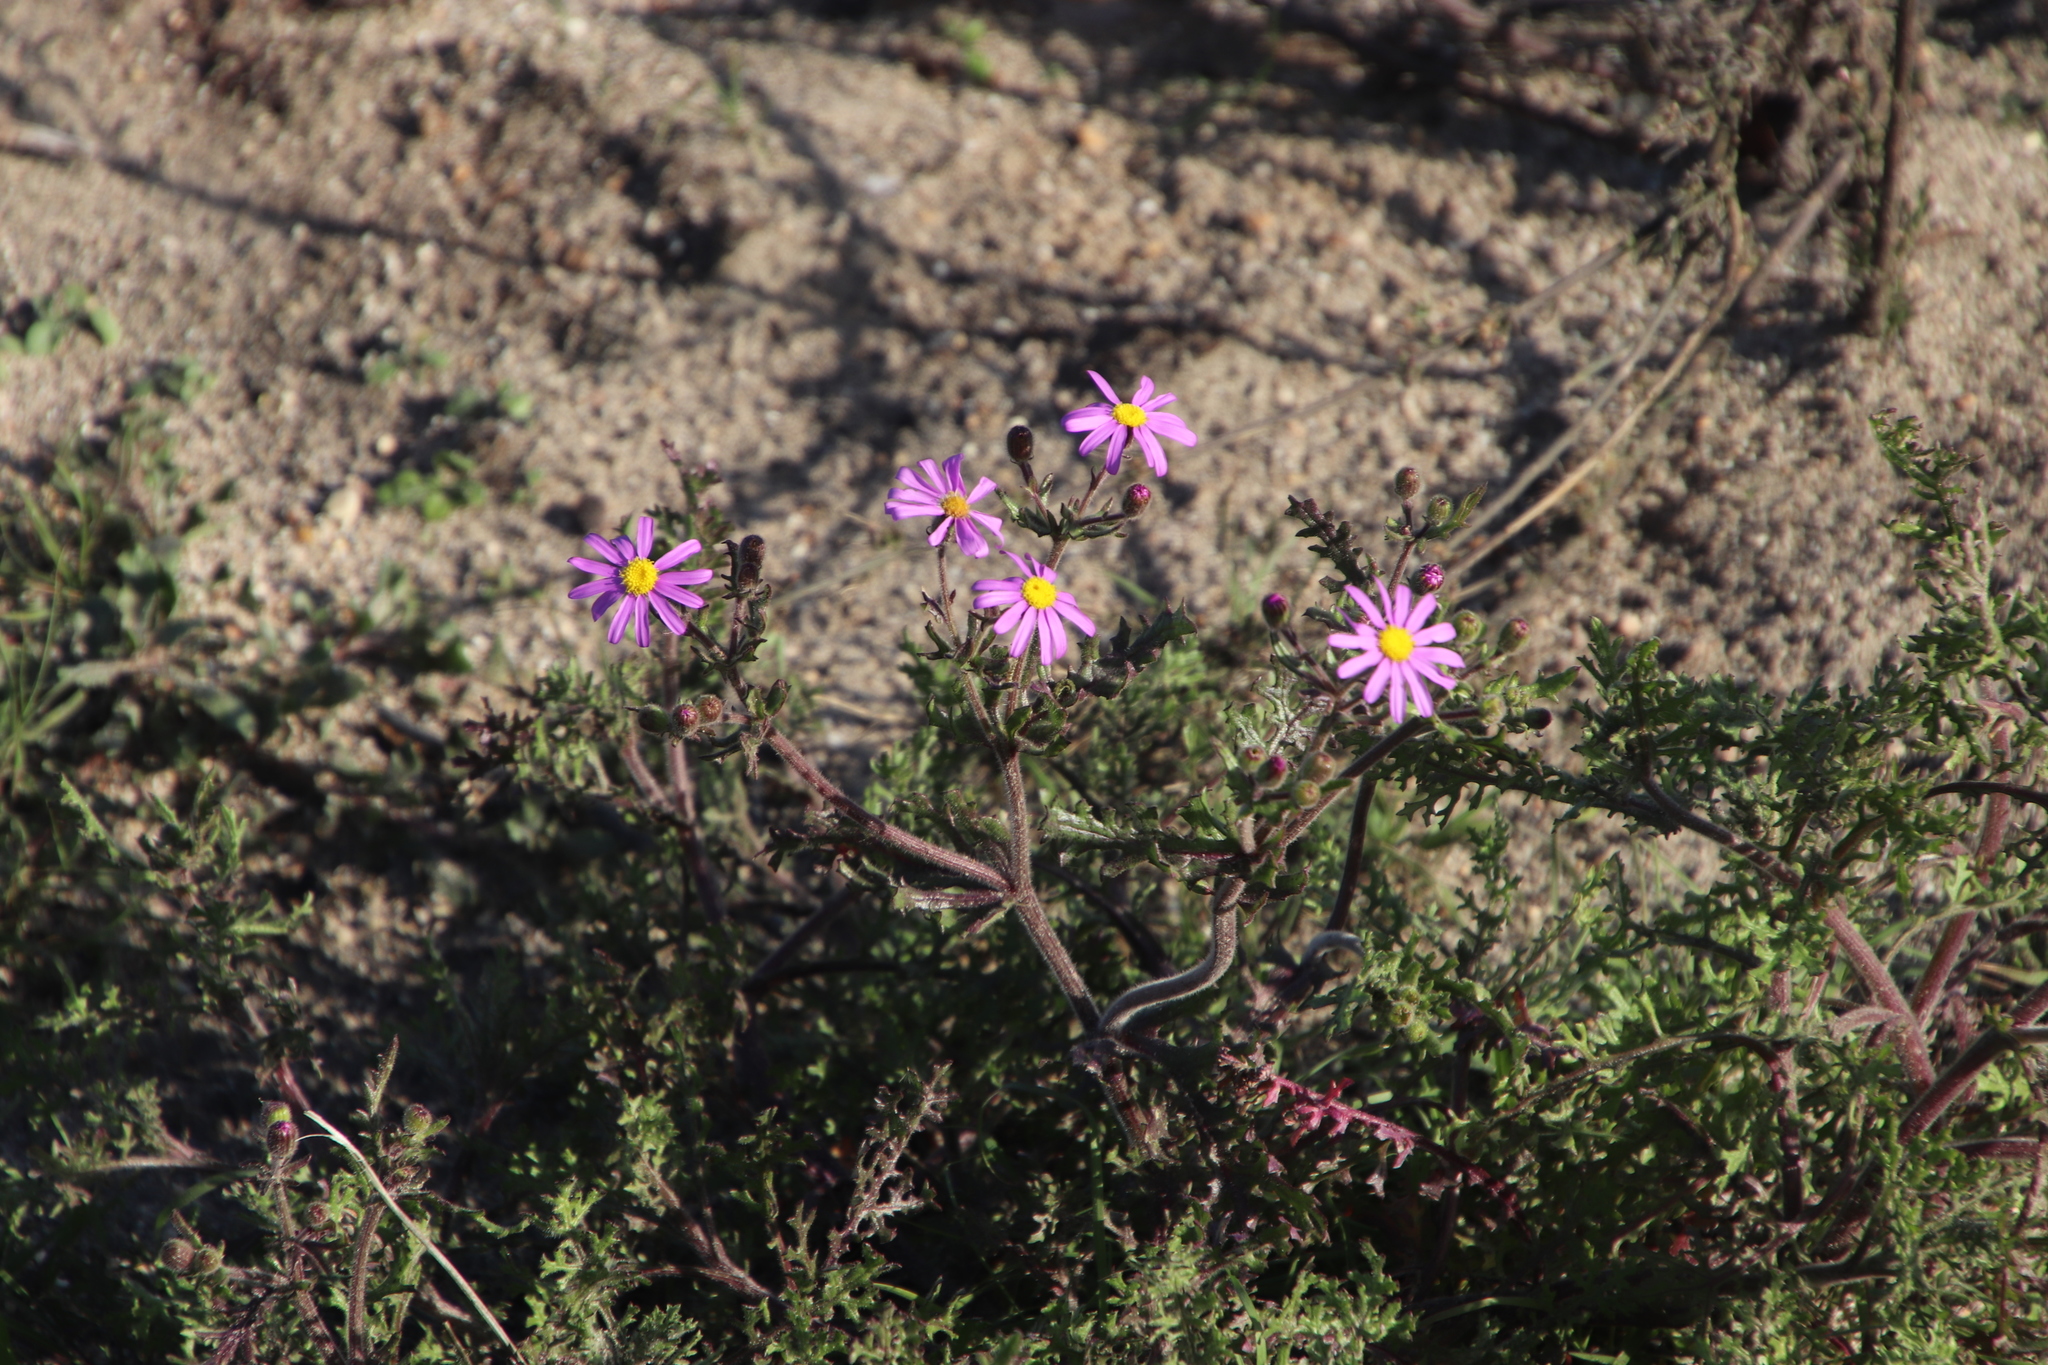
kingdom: Plantae
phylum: Tracheophyta
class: Magnoliopsida
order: Asterales
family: Asteraceae
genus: Senecio
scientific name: Senecio arenarius
